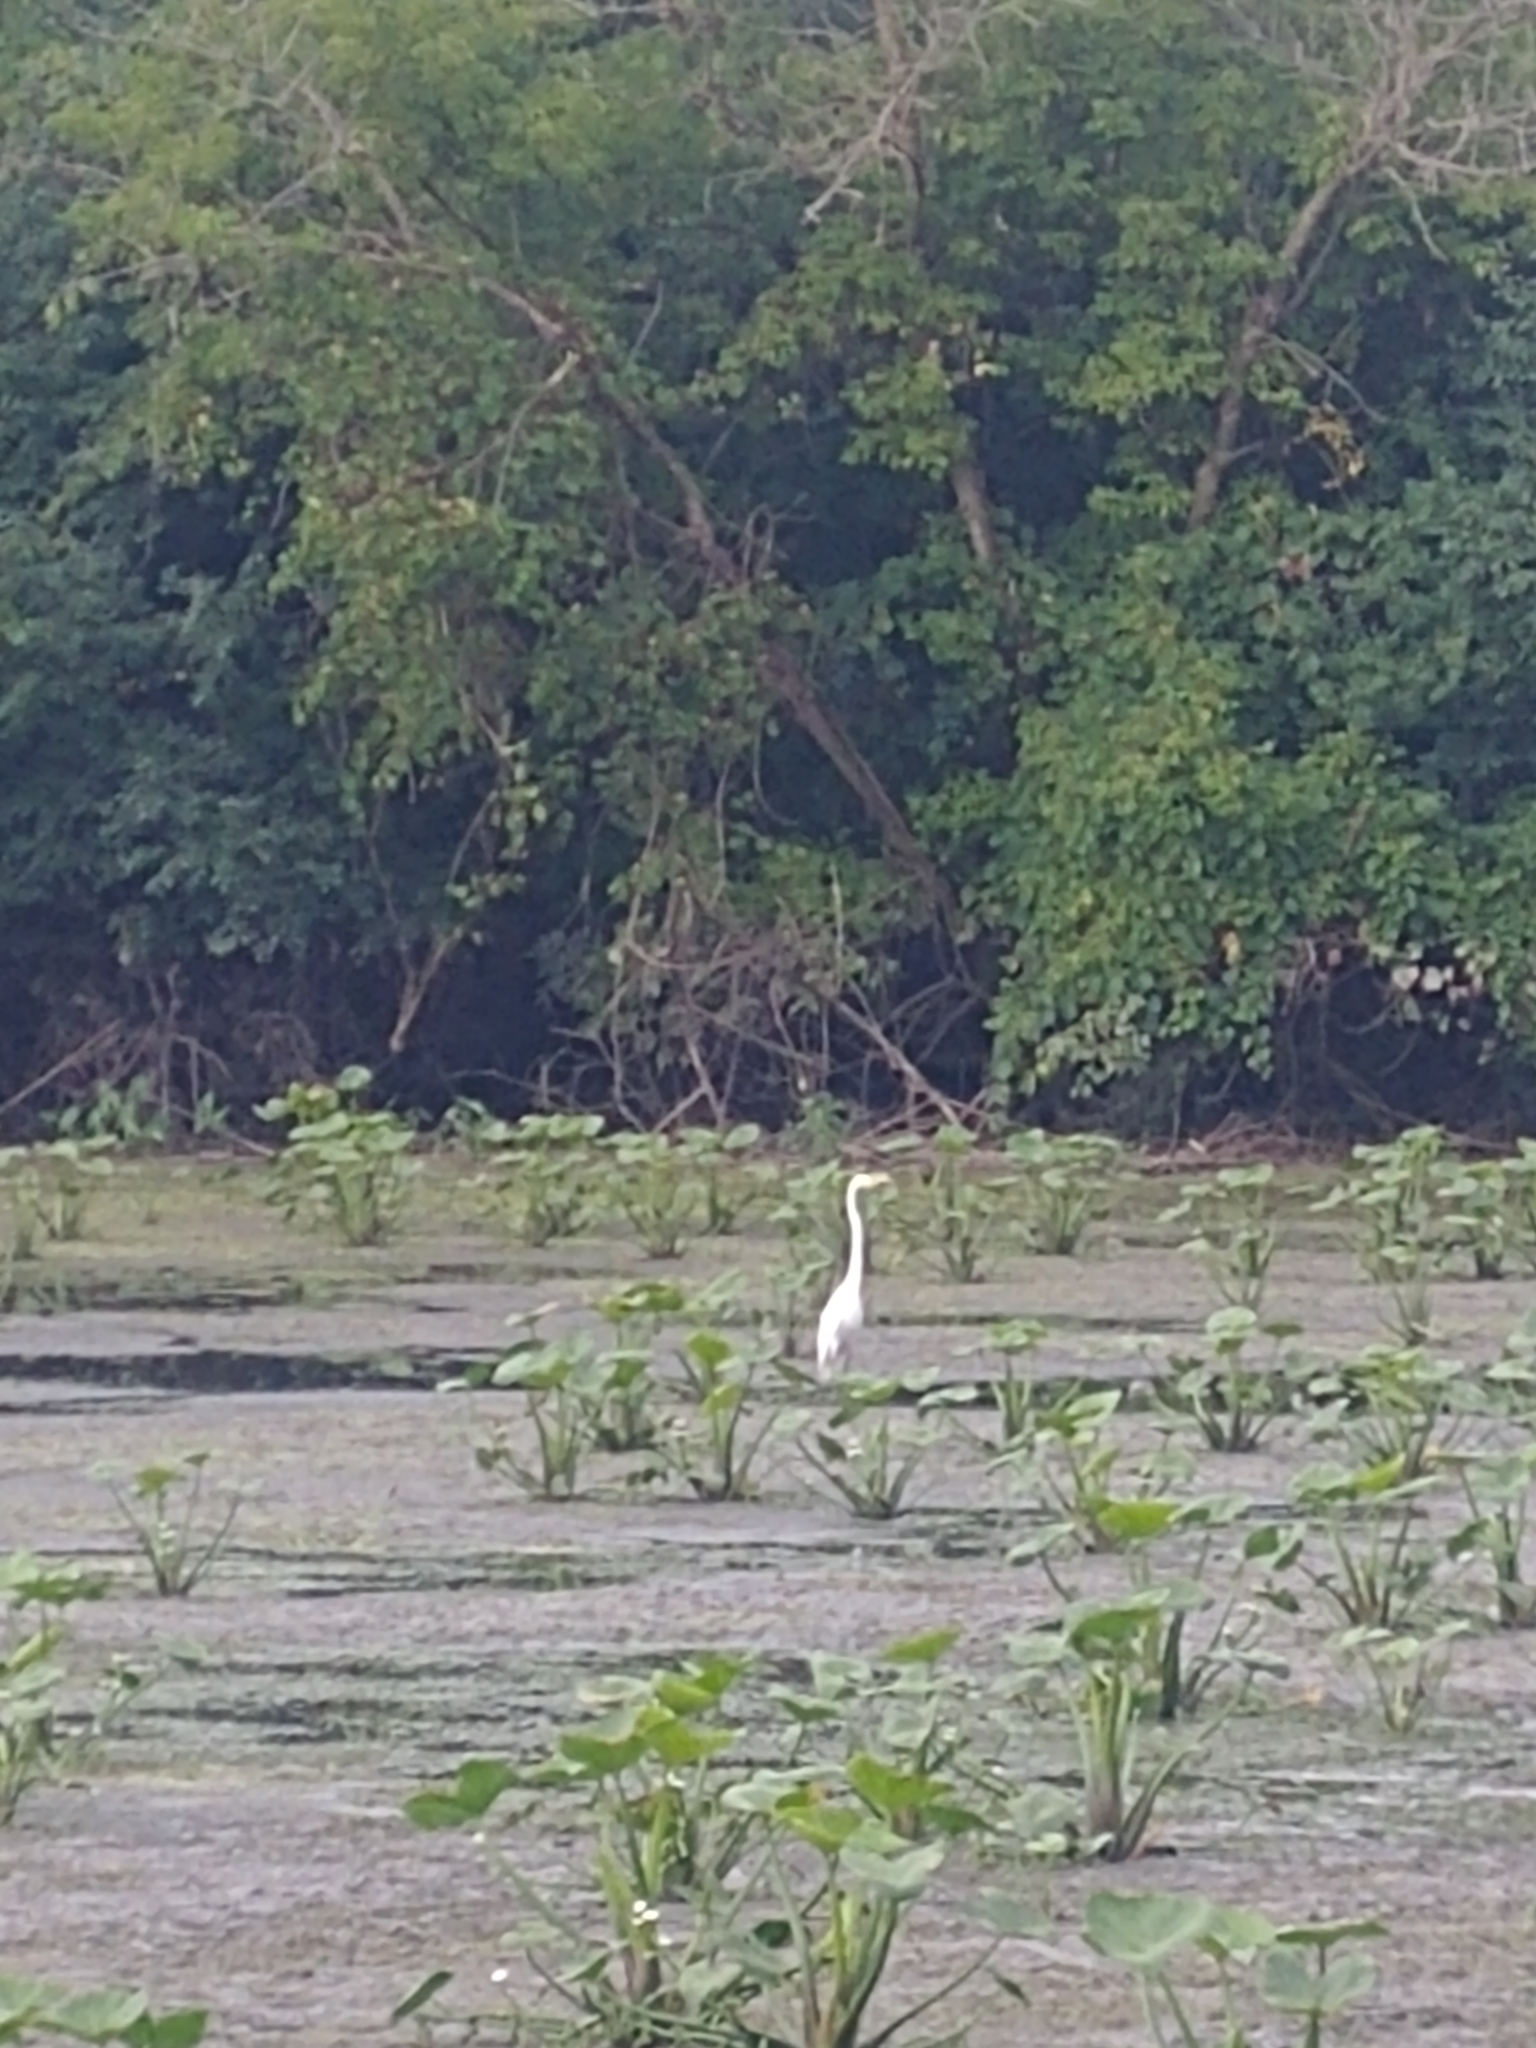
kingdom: Animalia
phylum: Chordata
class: Aves
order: Pelecaniformes
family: Ardeidae
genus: Ardea
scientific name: Ardea alba
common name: Great egret
